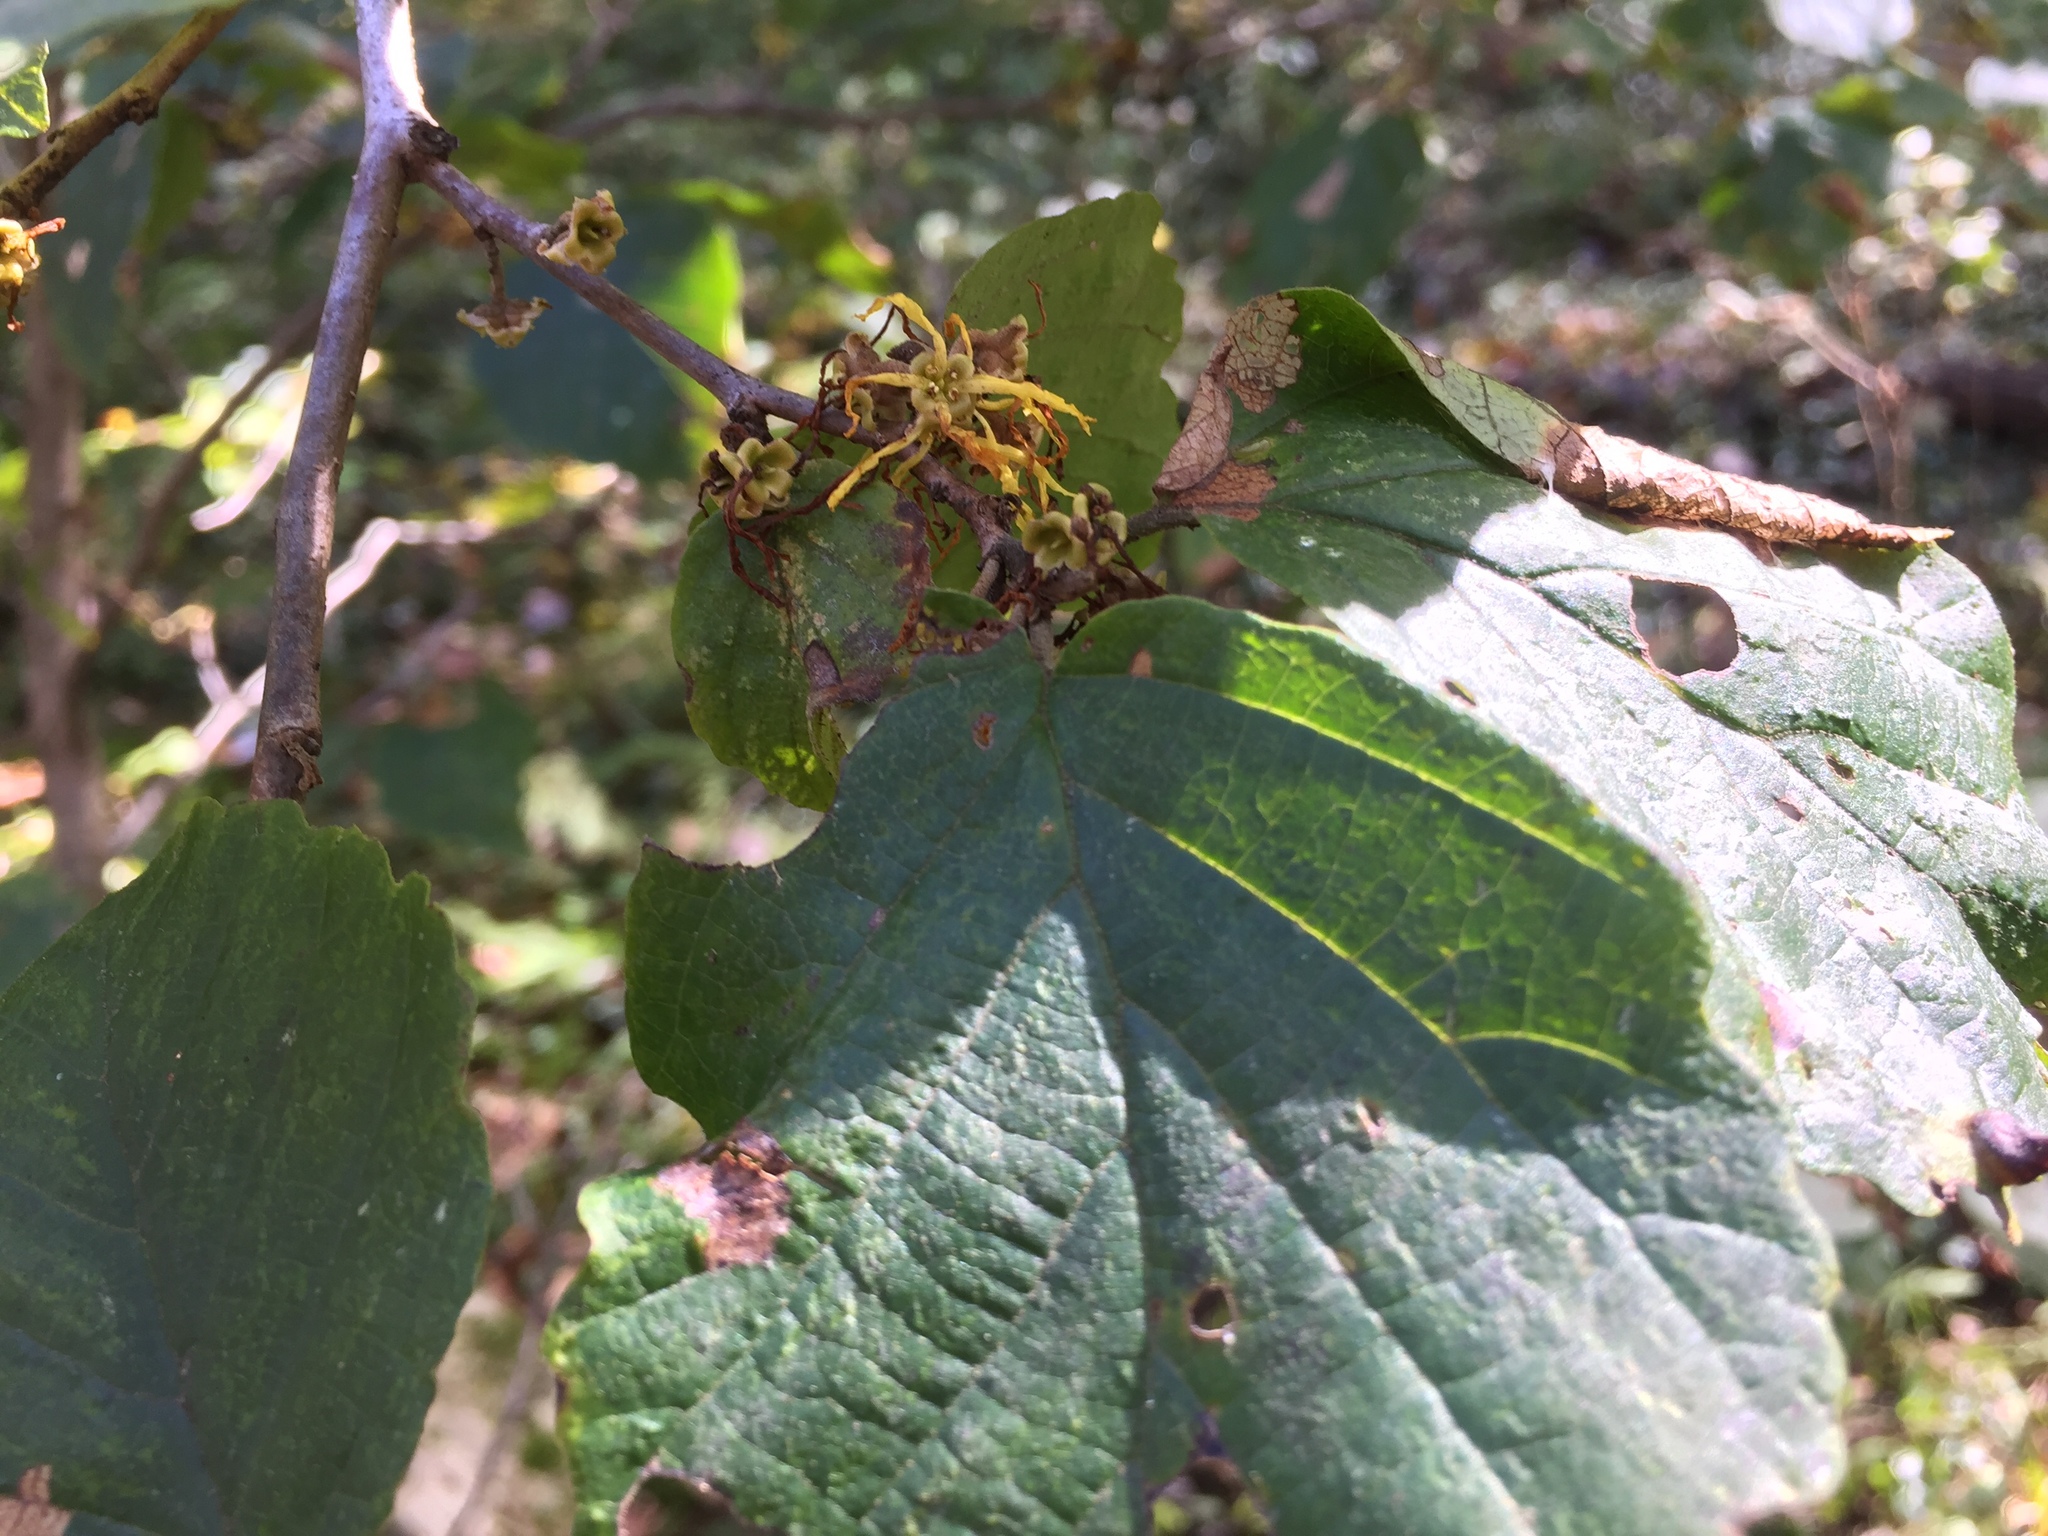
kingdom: Plantae
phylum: Tracheophyta
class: Magnoliopsida
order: Saxifragales
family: Hamamelidaceae
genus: Hamamelis
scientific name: Hamamelis virginiana
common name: Witch-hazel
